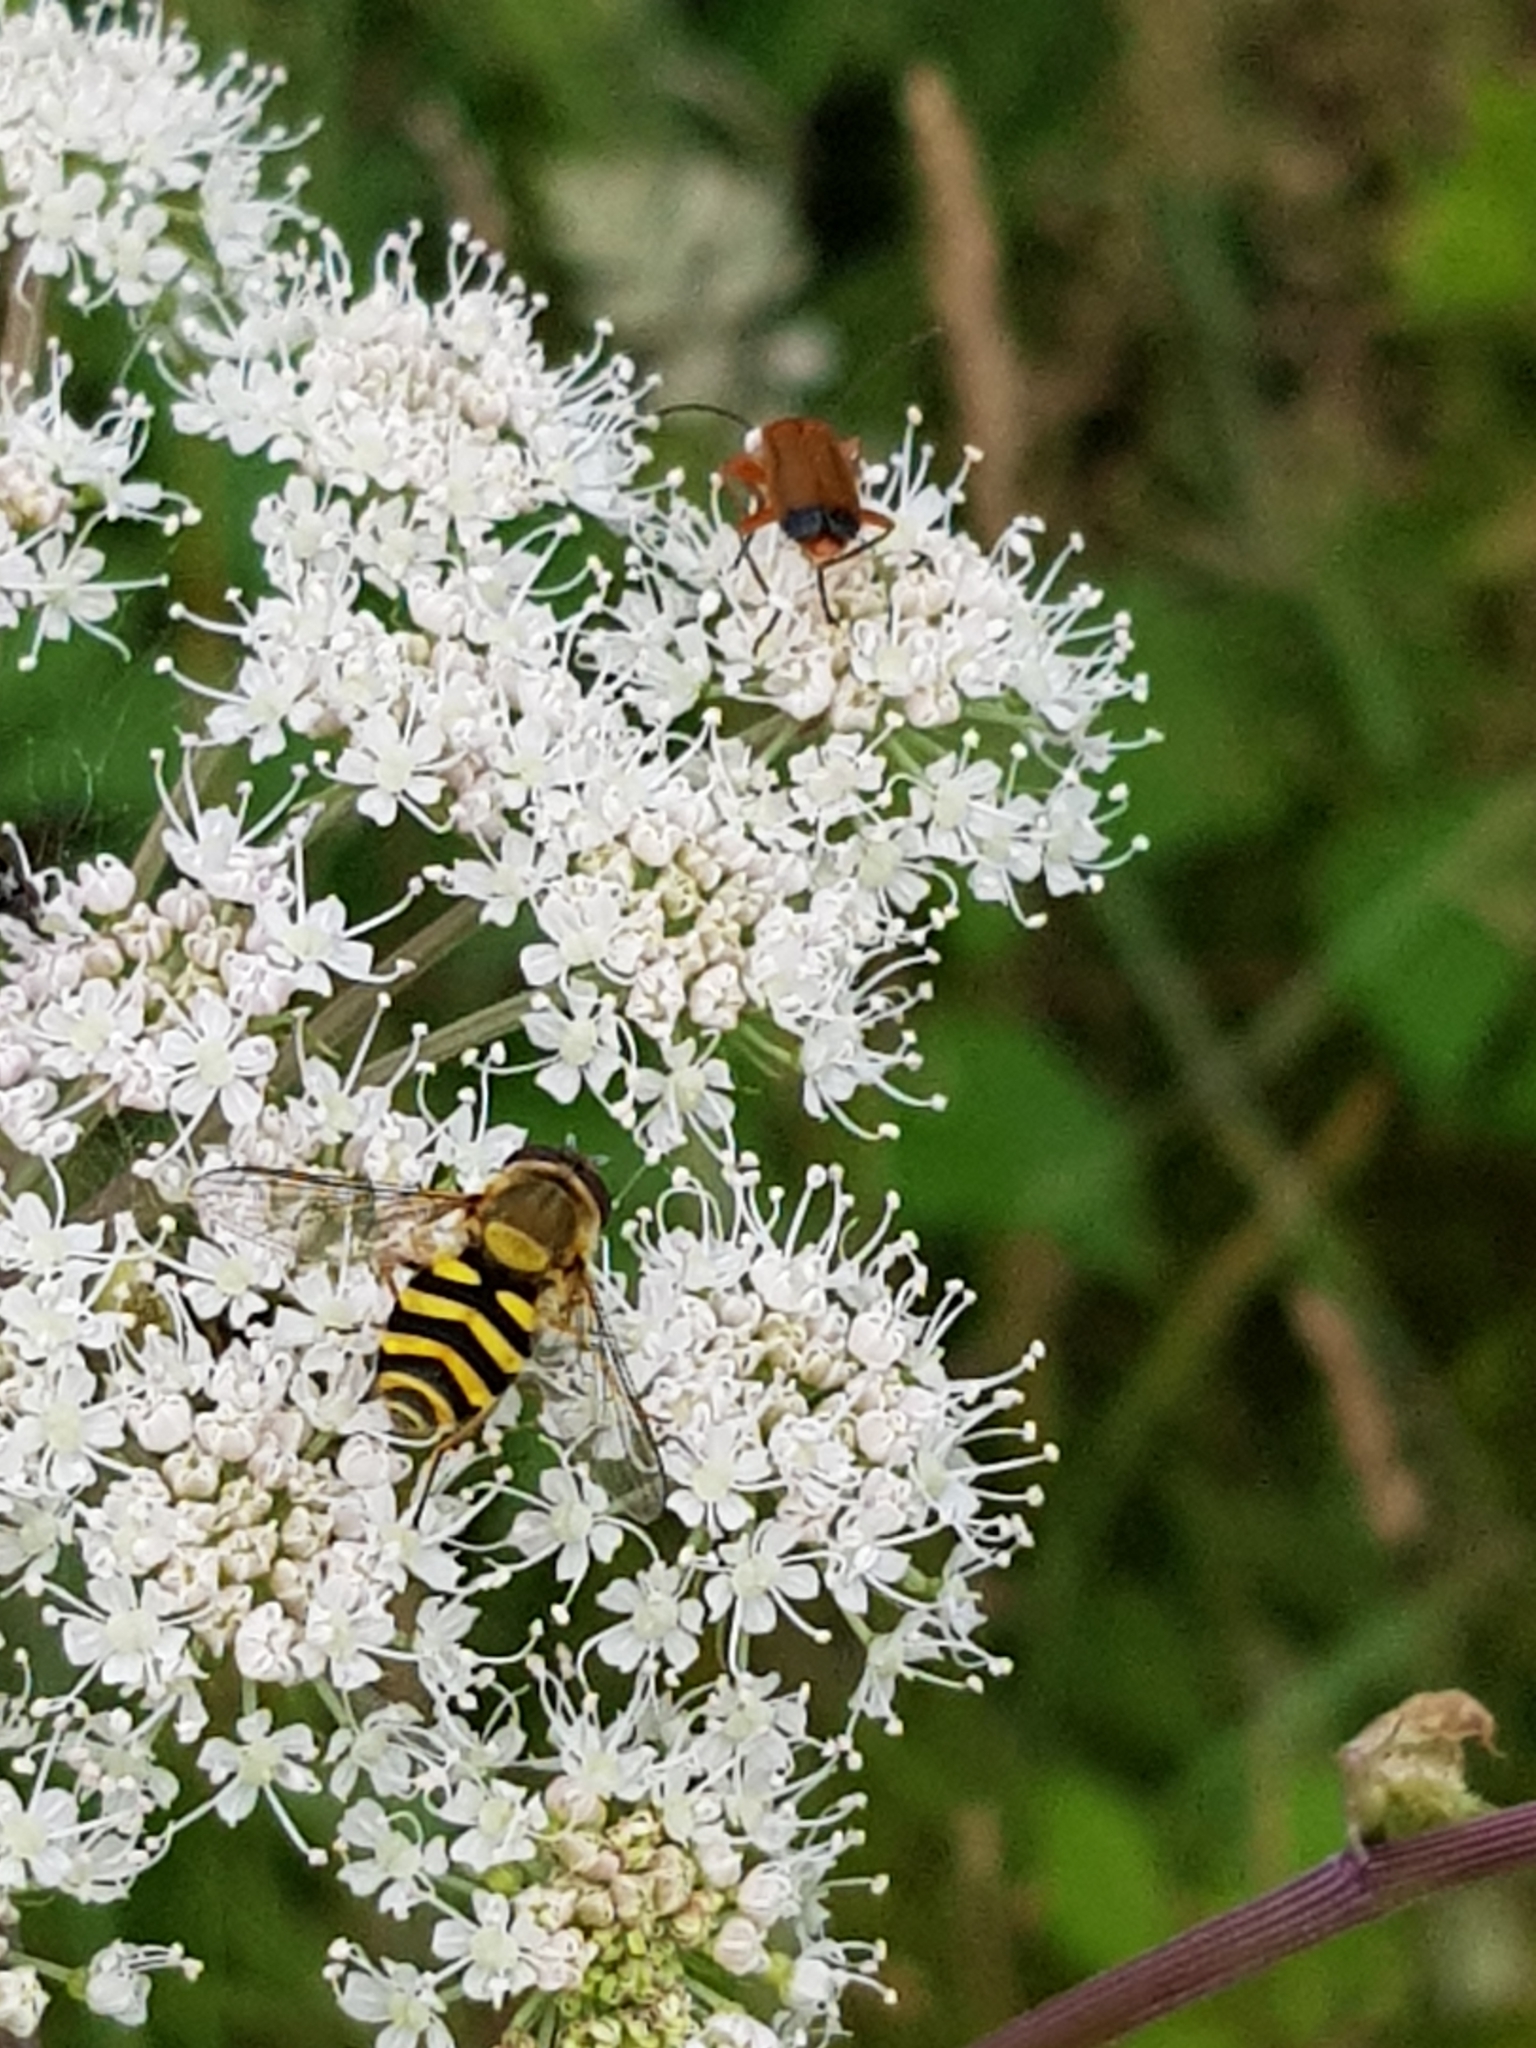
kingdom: Animalia
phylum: Arthropoda
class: Insecta
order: Diptera
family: Syrphidae
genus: Syrphus
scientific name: Syrphus
